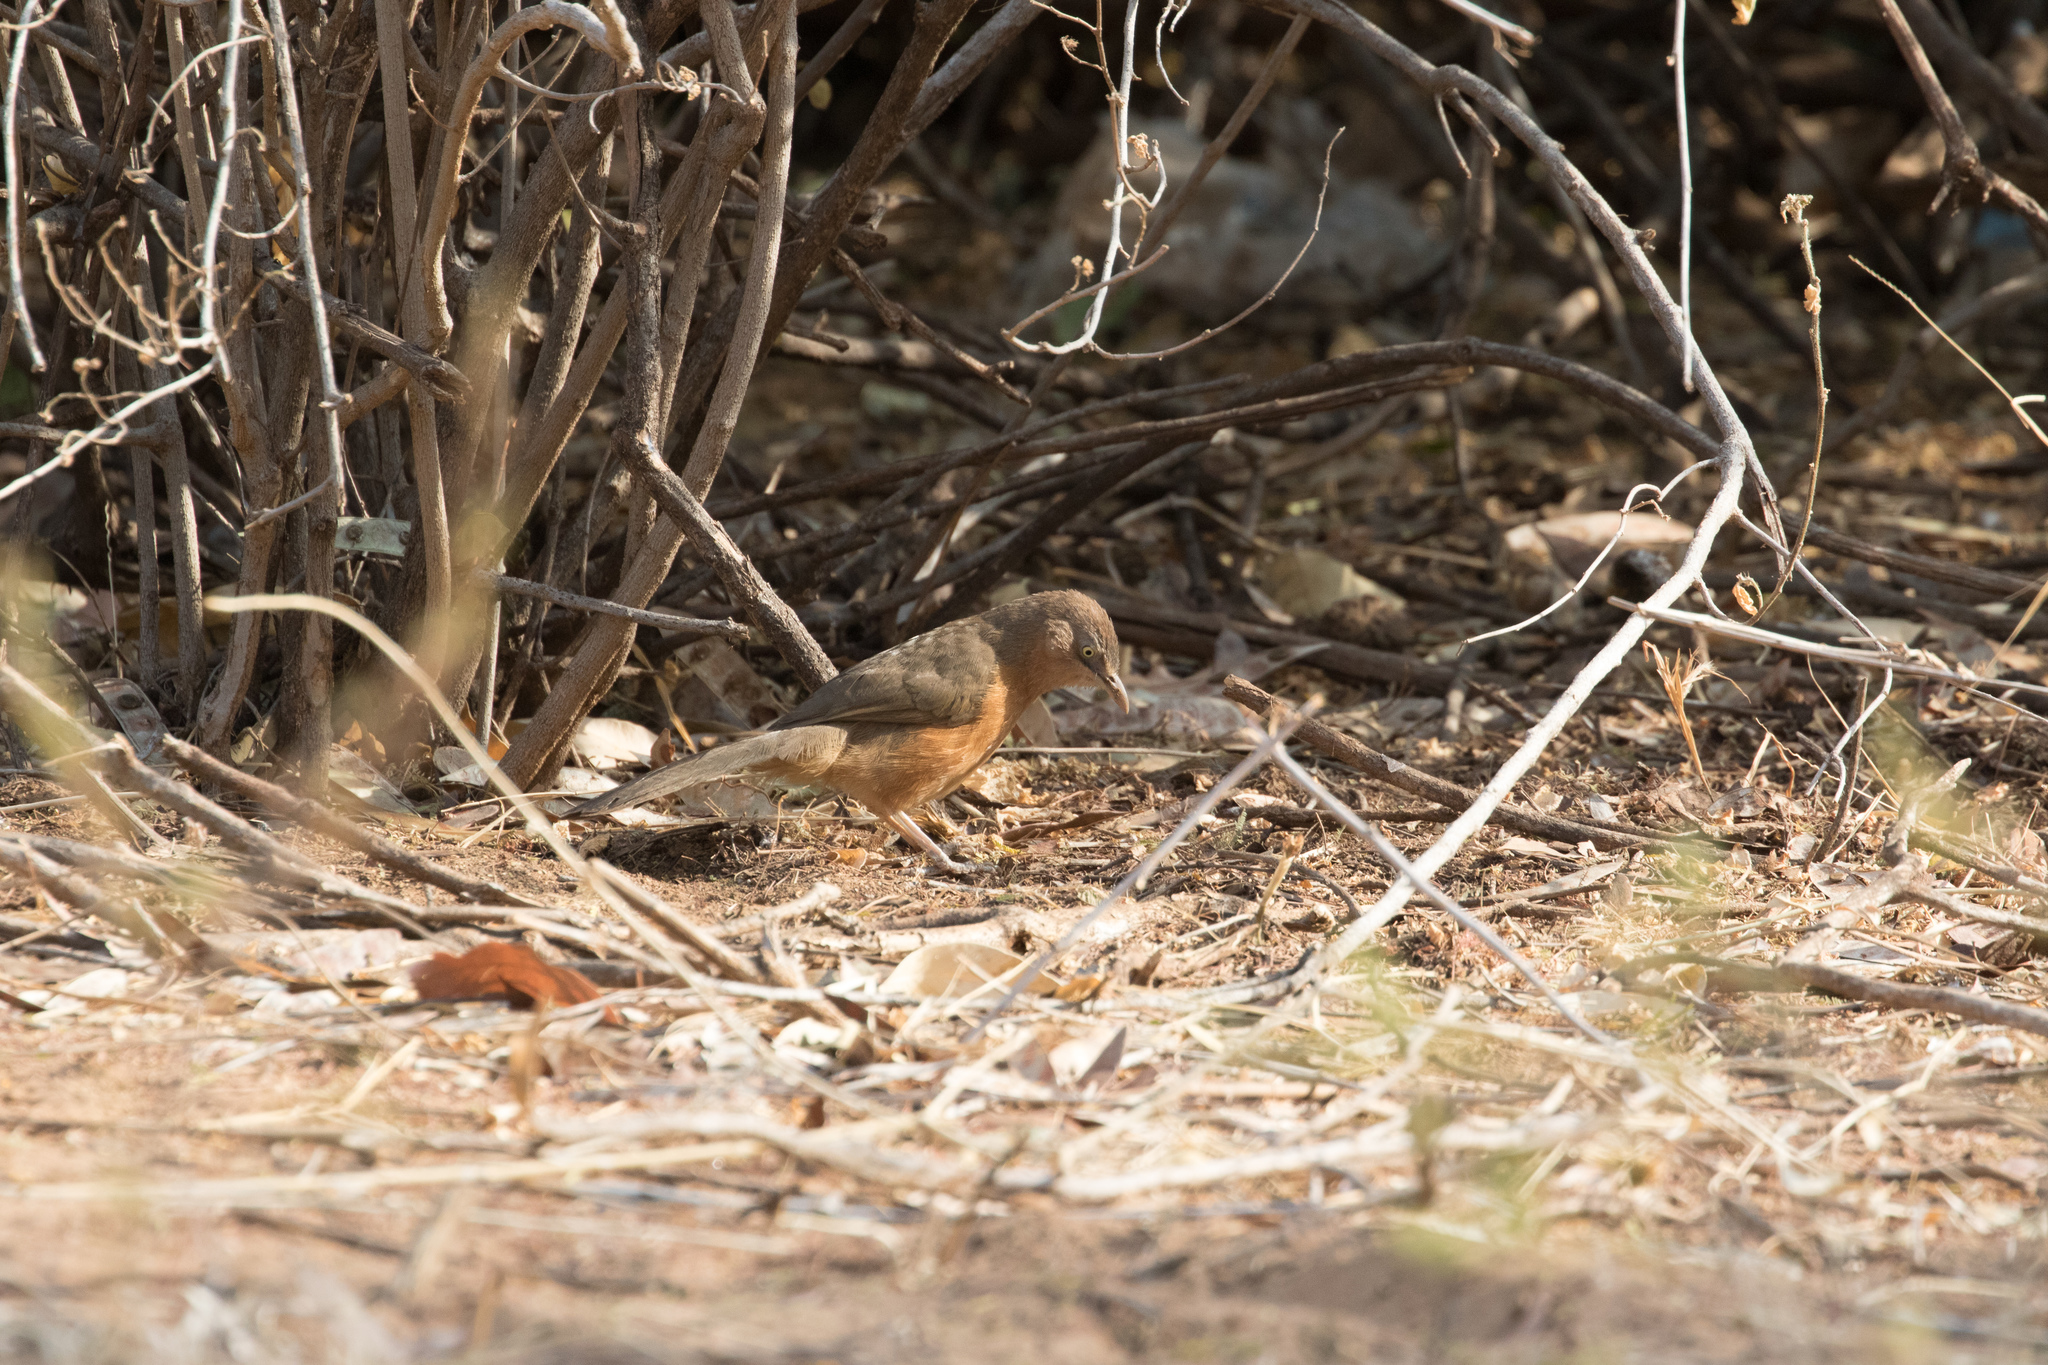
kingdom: Animalia
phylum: Chordata
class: Aves
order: Passeriformes
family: Leiothrichidae
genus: Turdoides
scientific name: Turdoides rubiginosa
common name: Rufous chatterer
